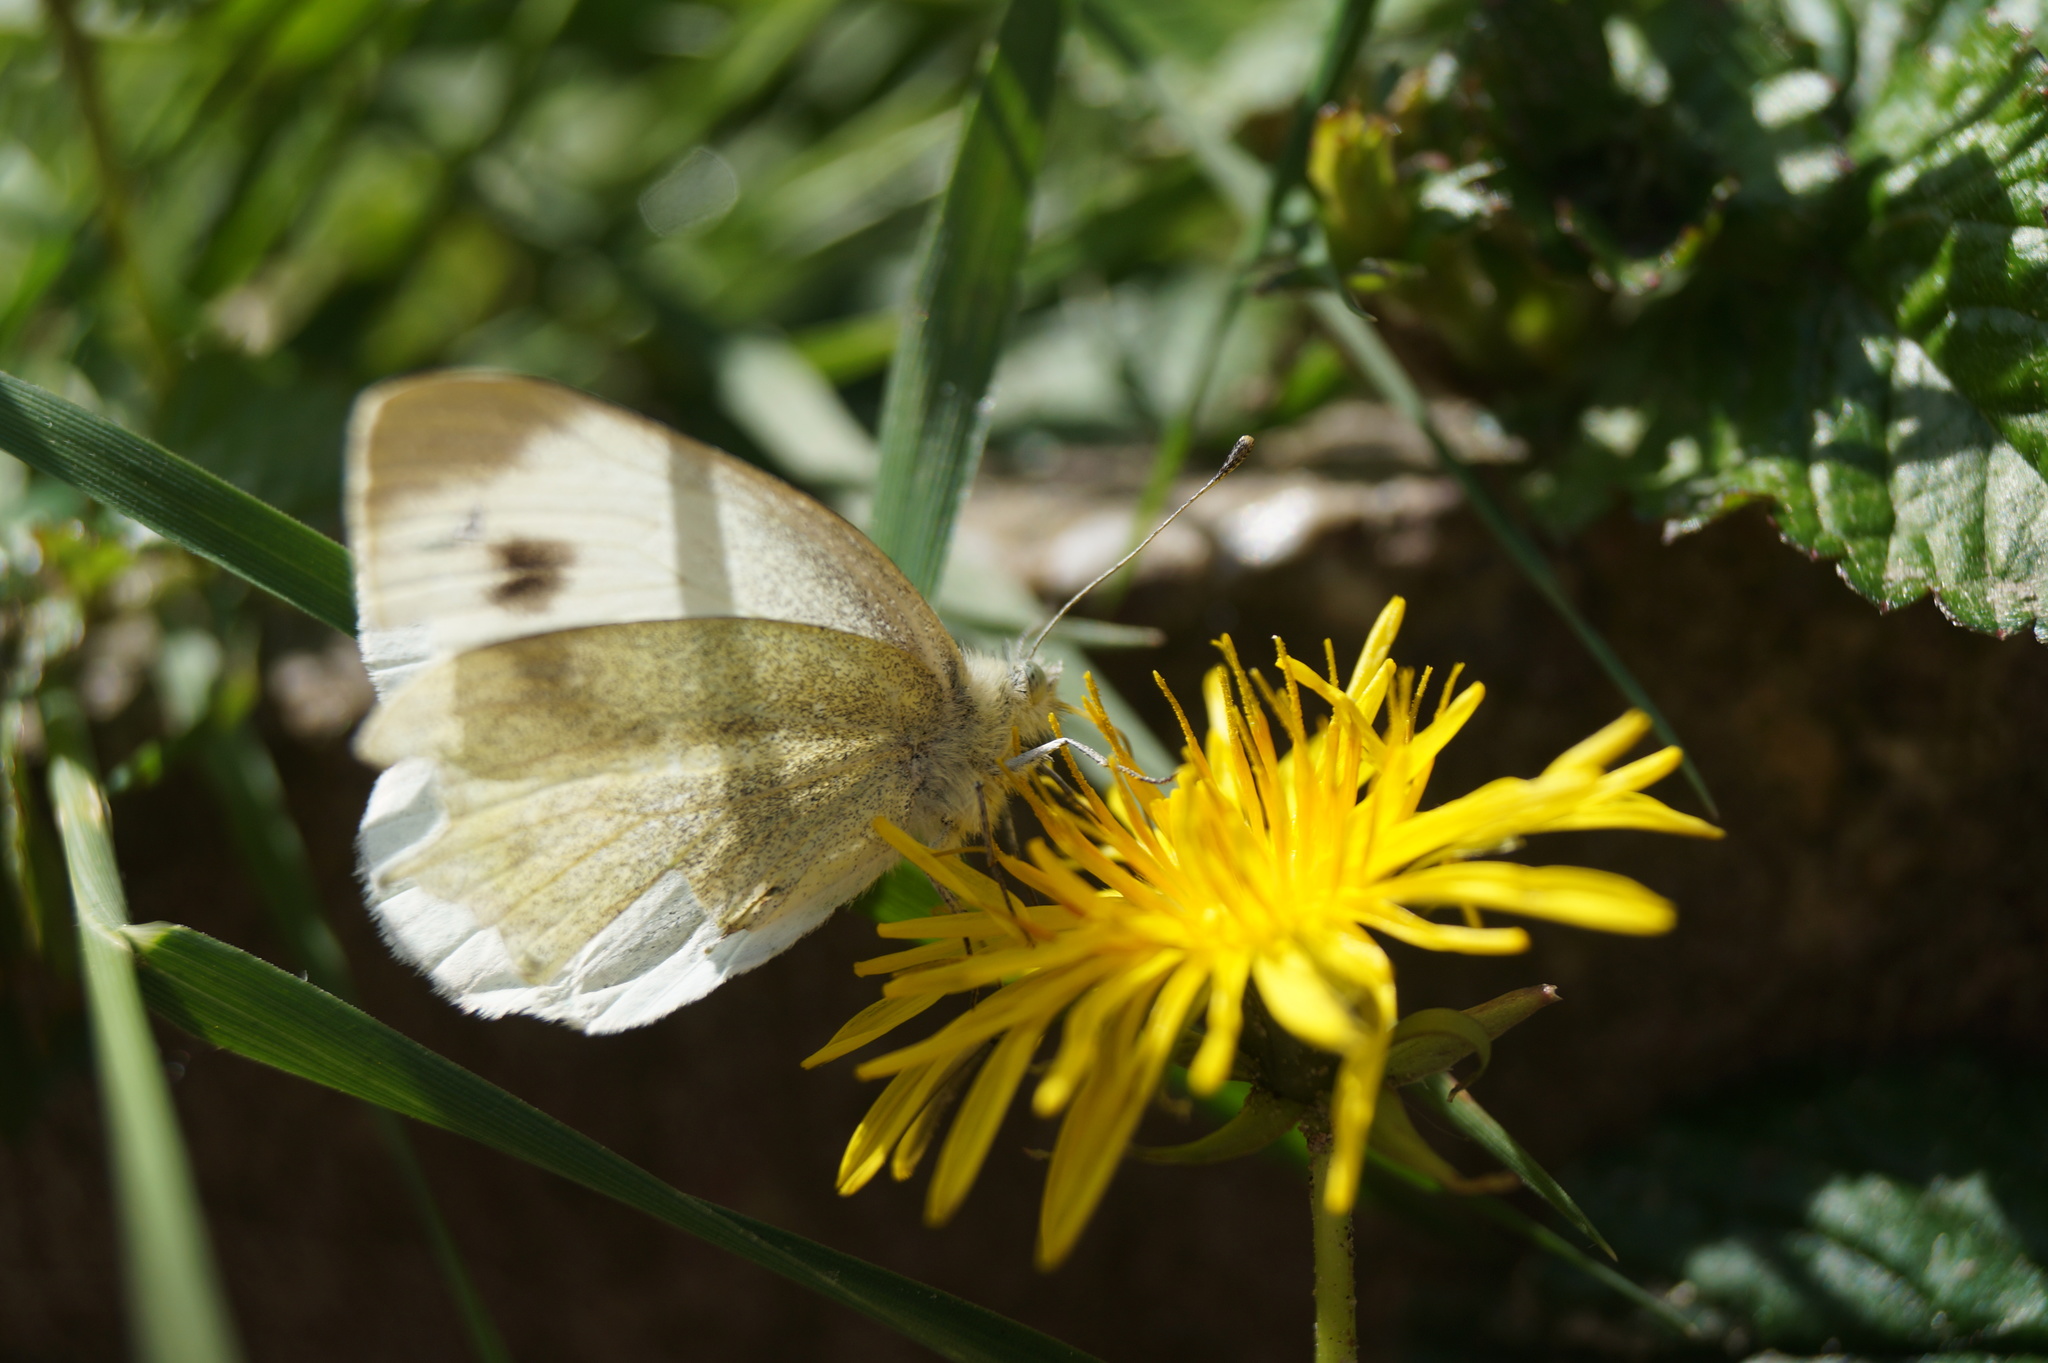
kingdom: Animalia
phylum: Arthropoda
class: Insecta
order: Lepidoptera
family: Pieridae
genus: Pieris
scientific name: Pieris mannii
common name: Southern small white
